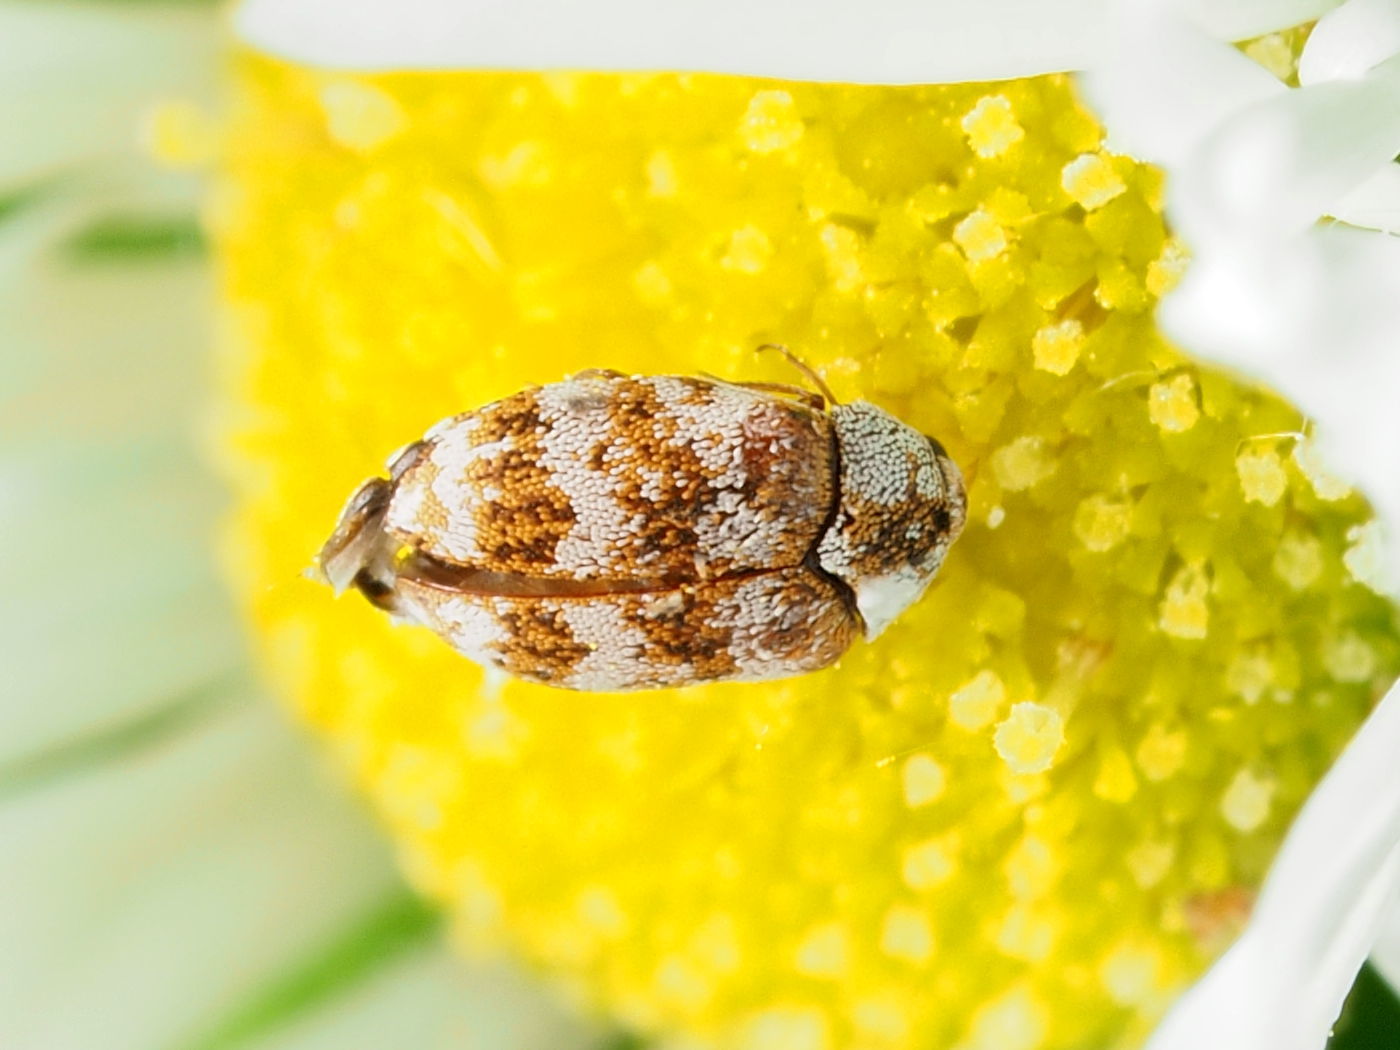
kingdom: Animalia
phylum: Arthropoda
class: Insecta
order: Coleoptera
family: Dermestidae
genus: Anthrenus
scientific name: Anthrenus coloratus
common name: Auger beetle
